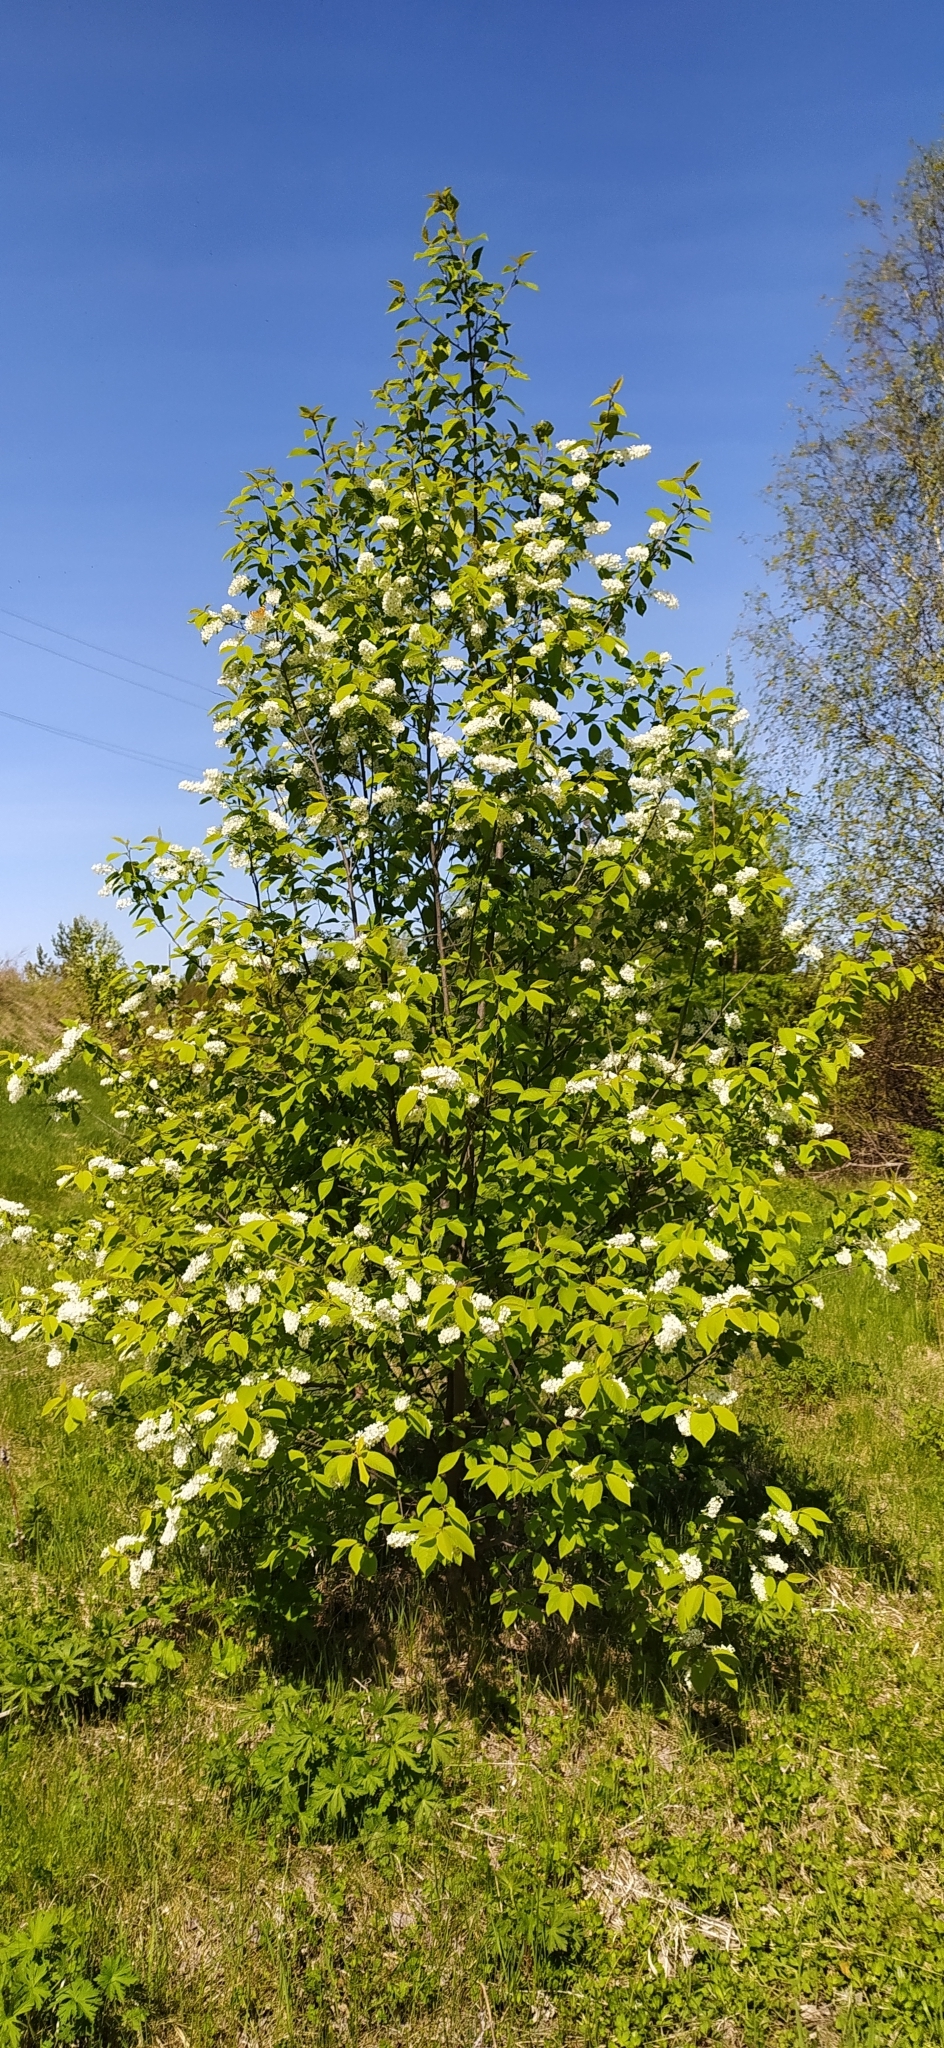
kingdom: Plantae
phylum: Tracheophyta
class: Magnoliopsida
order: Rosales
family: Rosaceae
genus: Prunus
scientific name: Prunus padus
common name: Bird cherry
